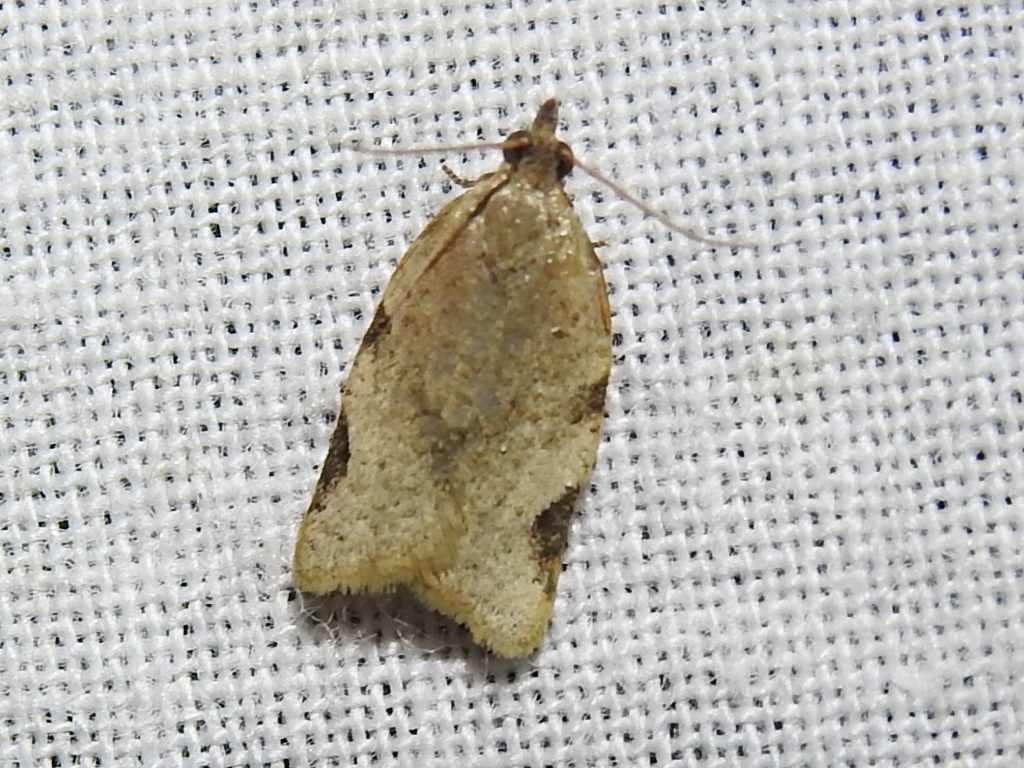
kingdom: Animalia
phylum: Arthropoda
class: Insecta
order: Lepidoptera
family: Tortricidae
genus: Clepsis
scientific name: Clepsis virescana
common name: Greenish apple moth
